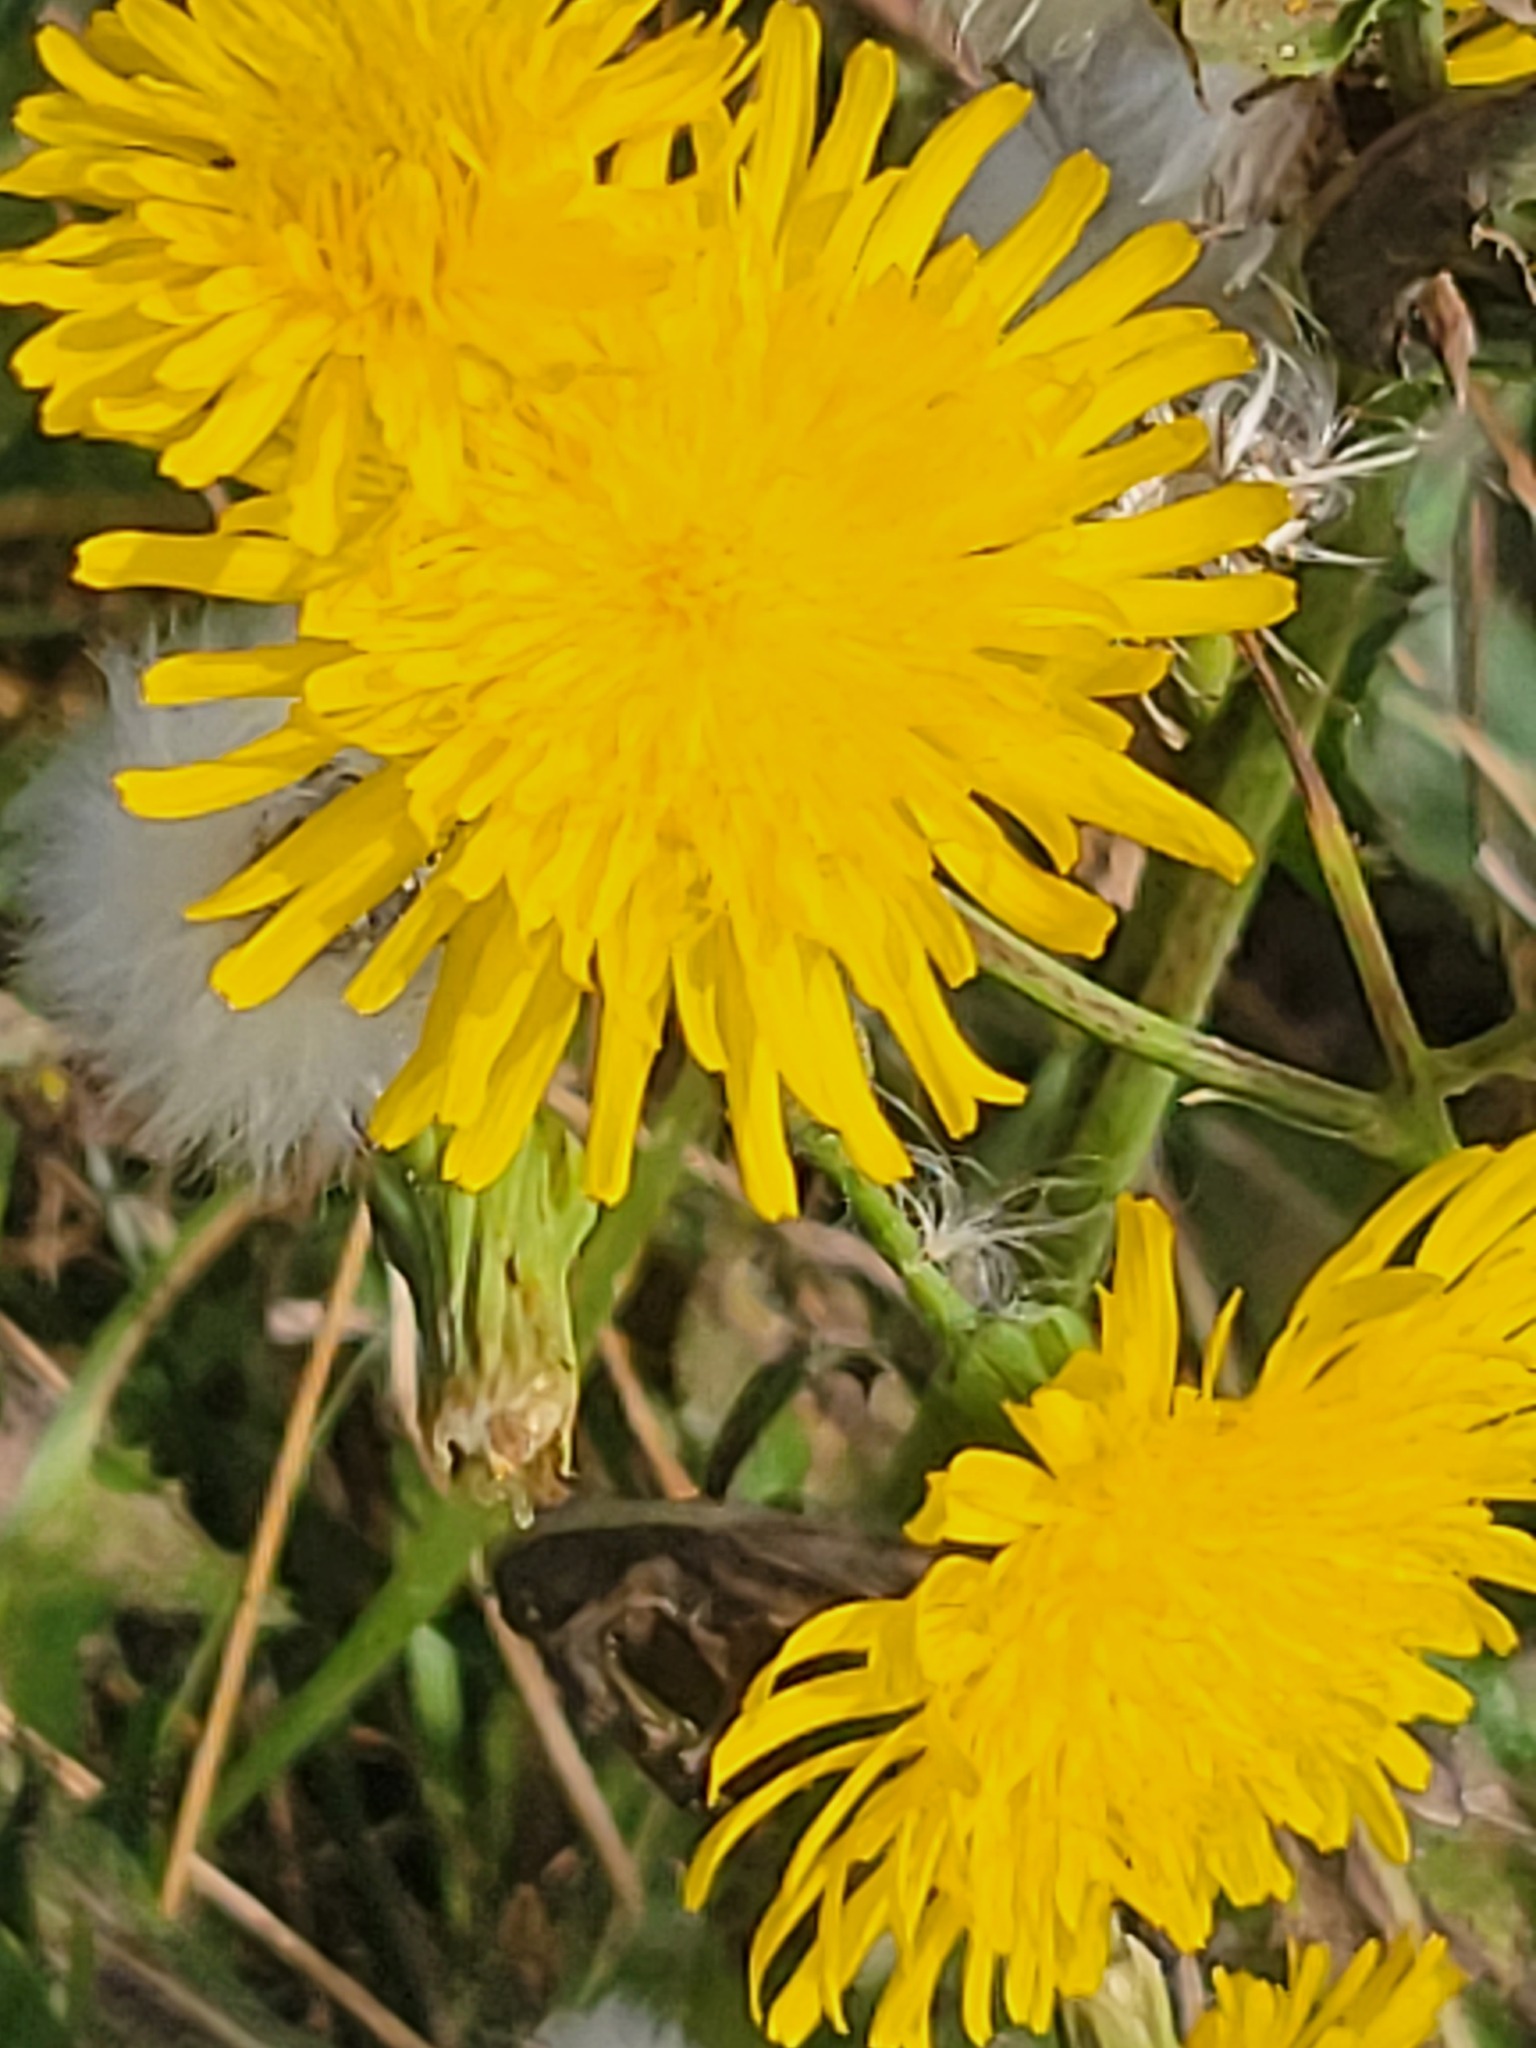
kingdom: Plantae
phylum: Tracheophyta
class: Magnoliopsida
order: Asterales
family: Asteraceae
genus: Sonchus
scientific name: Sonchus arvensis
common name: Perennial sow-thistle
